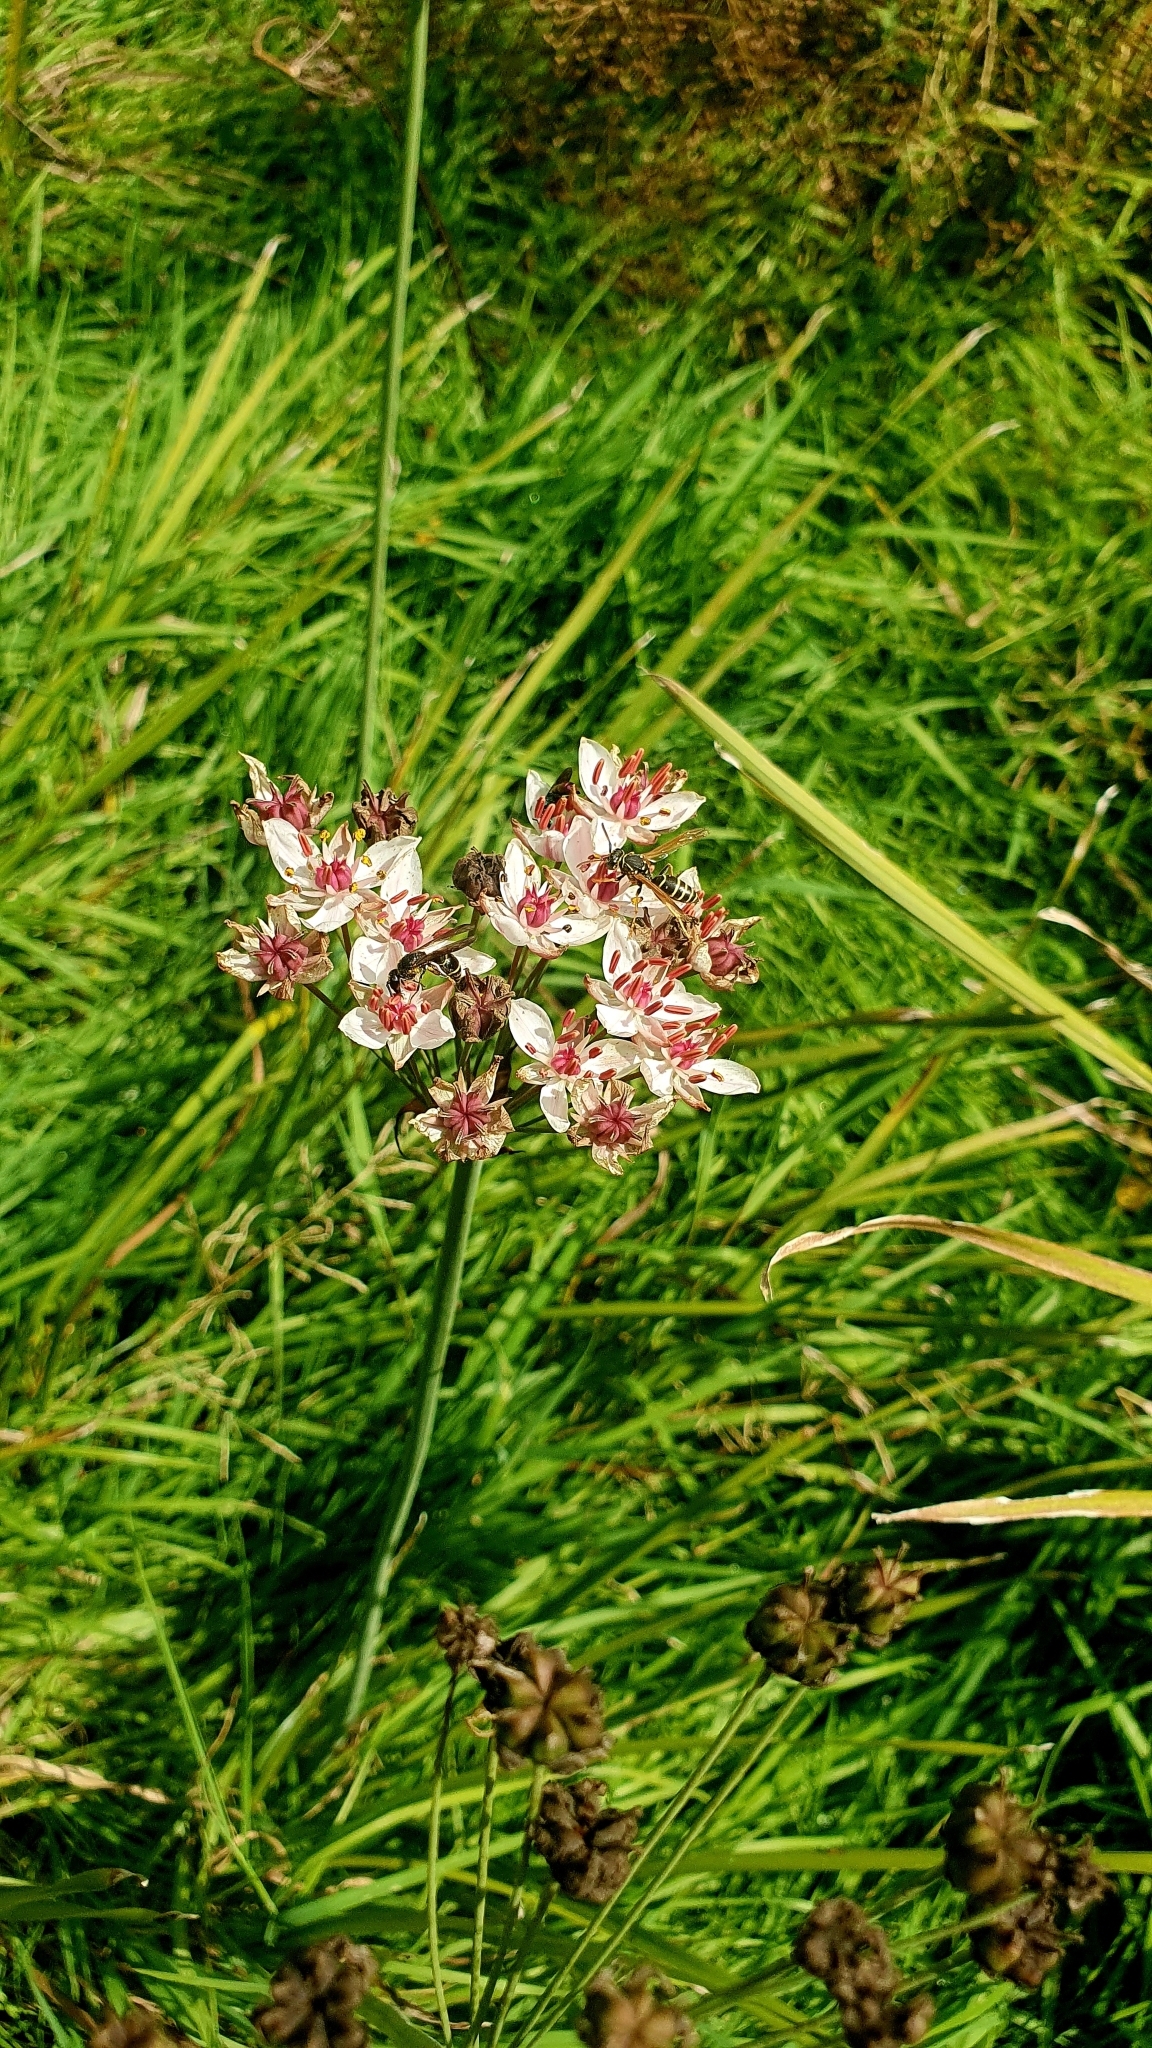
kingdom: Plantae
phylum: Tracheophyta
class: Liliopsida
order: Alismatales
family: Butomaceae
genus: Butomus
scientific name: Butomus umbellatus
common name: Flowering-rush
